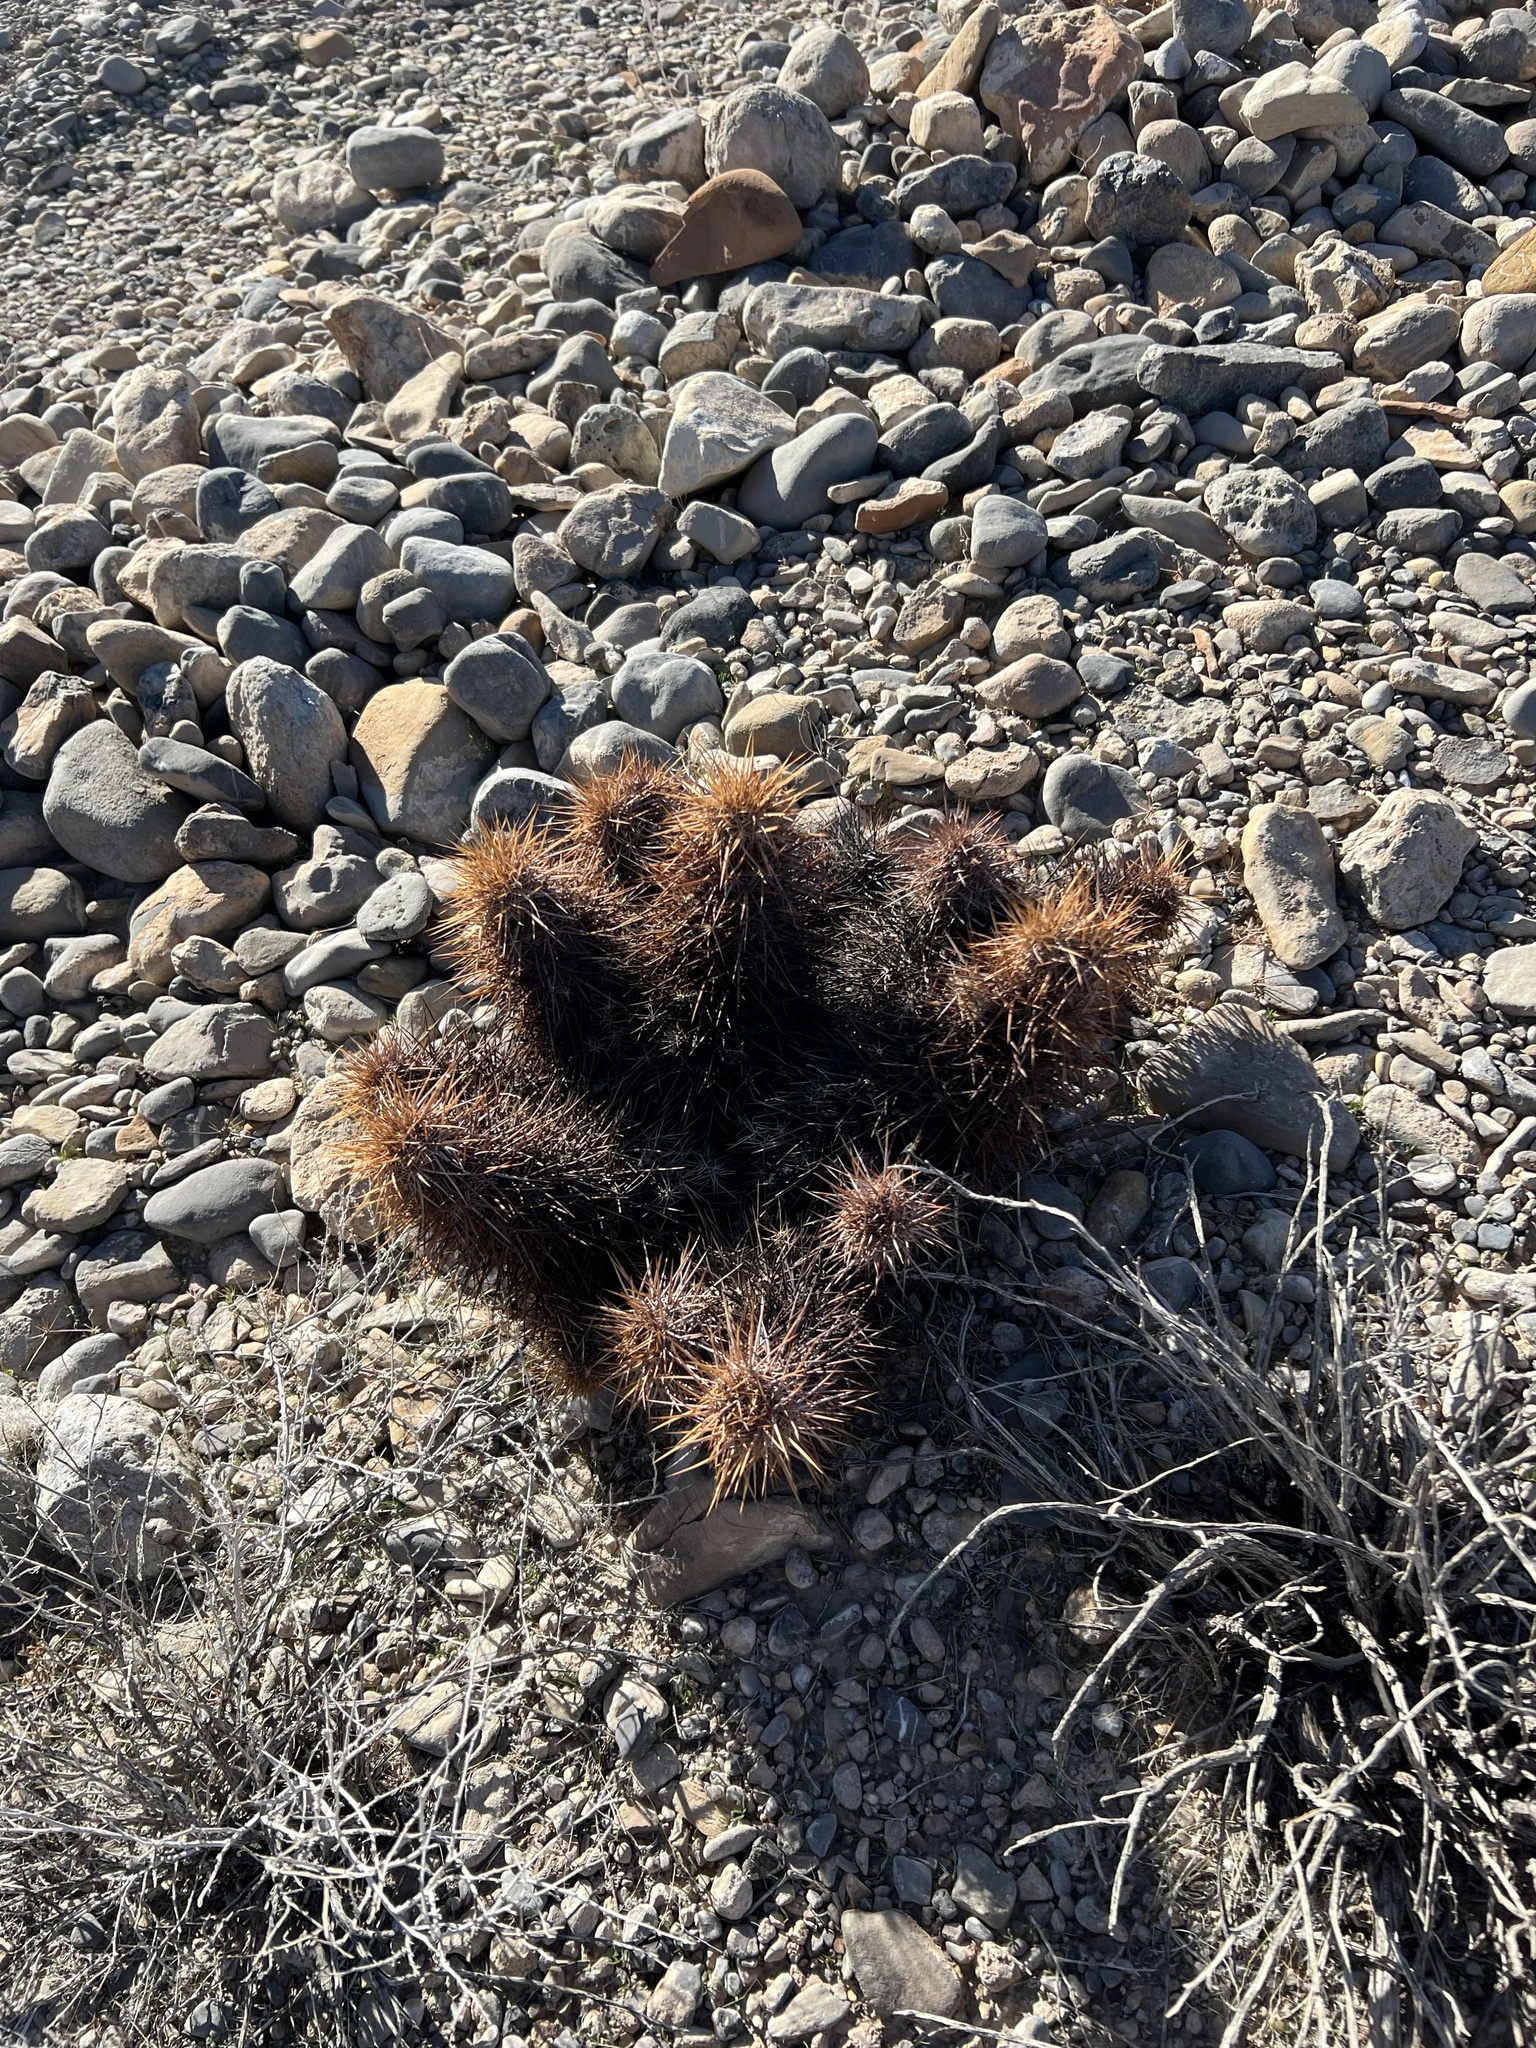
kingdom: Plantae
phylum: Tracheophyta
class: Magnoliopsida
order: Caryophyllales
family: Cactaceae
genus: Echinocereus
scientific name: Echinocereus engelmannii
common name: Engelmann's hedgehog cactus
